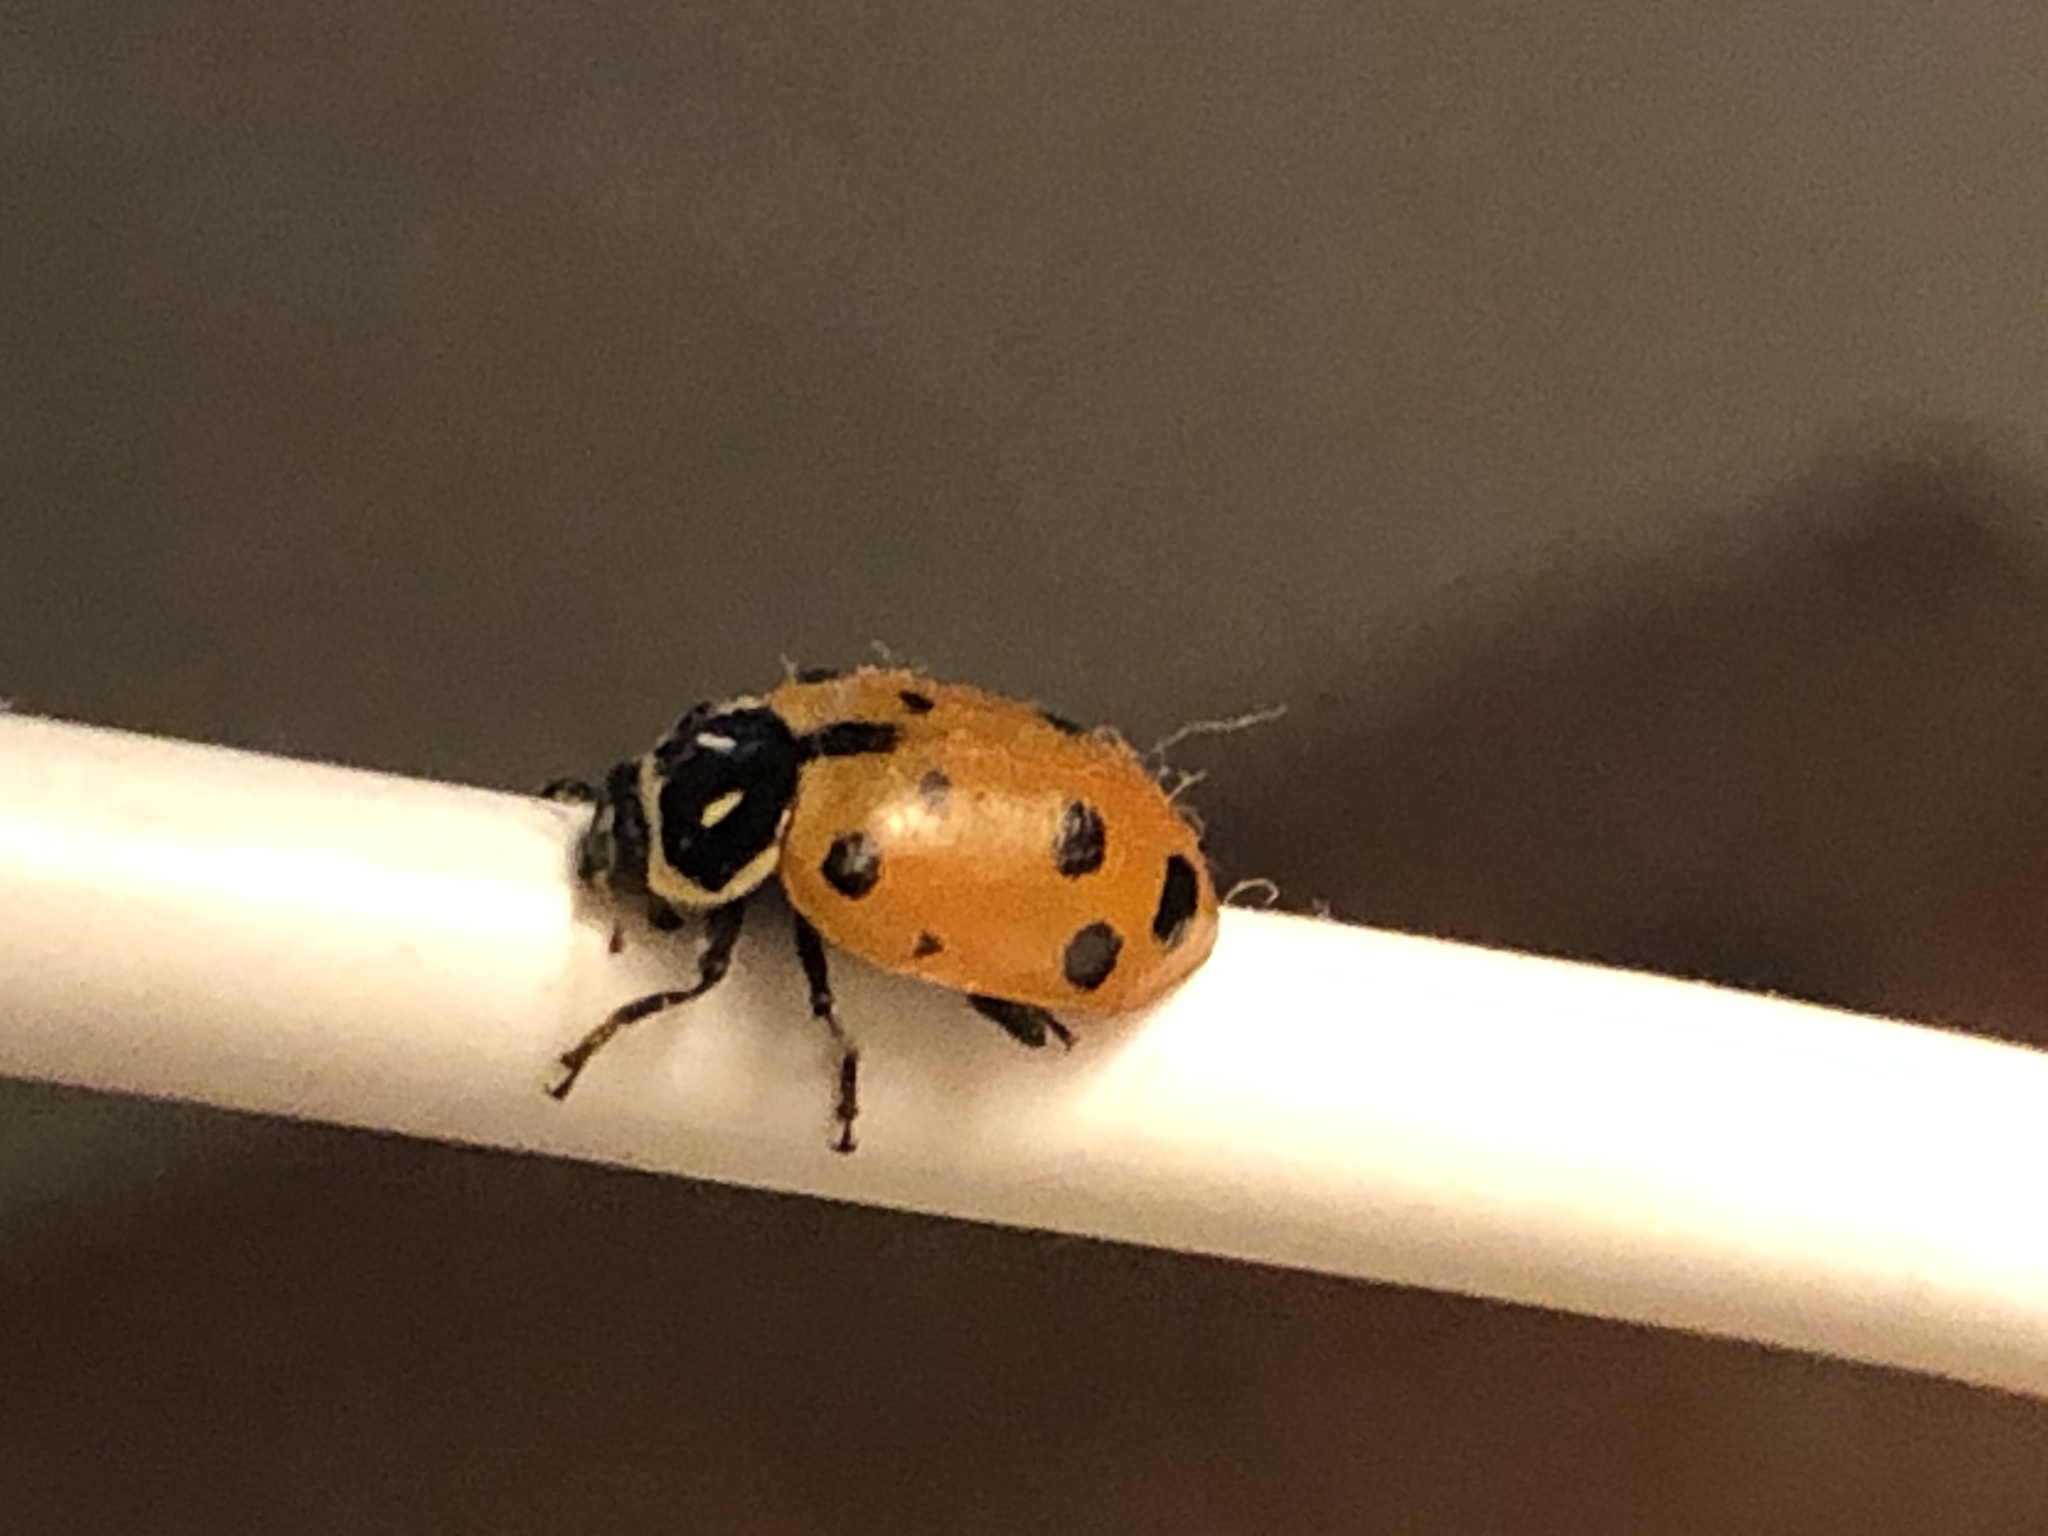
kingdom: Animalia
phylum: Arthropoda
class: Insecta
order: Coleoptera
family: Coccinellidae
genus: Hippodamia
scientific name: Hippodamia convergens
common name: Convergent lady beetle
